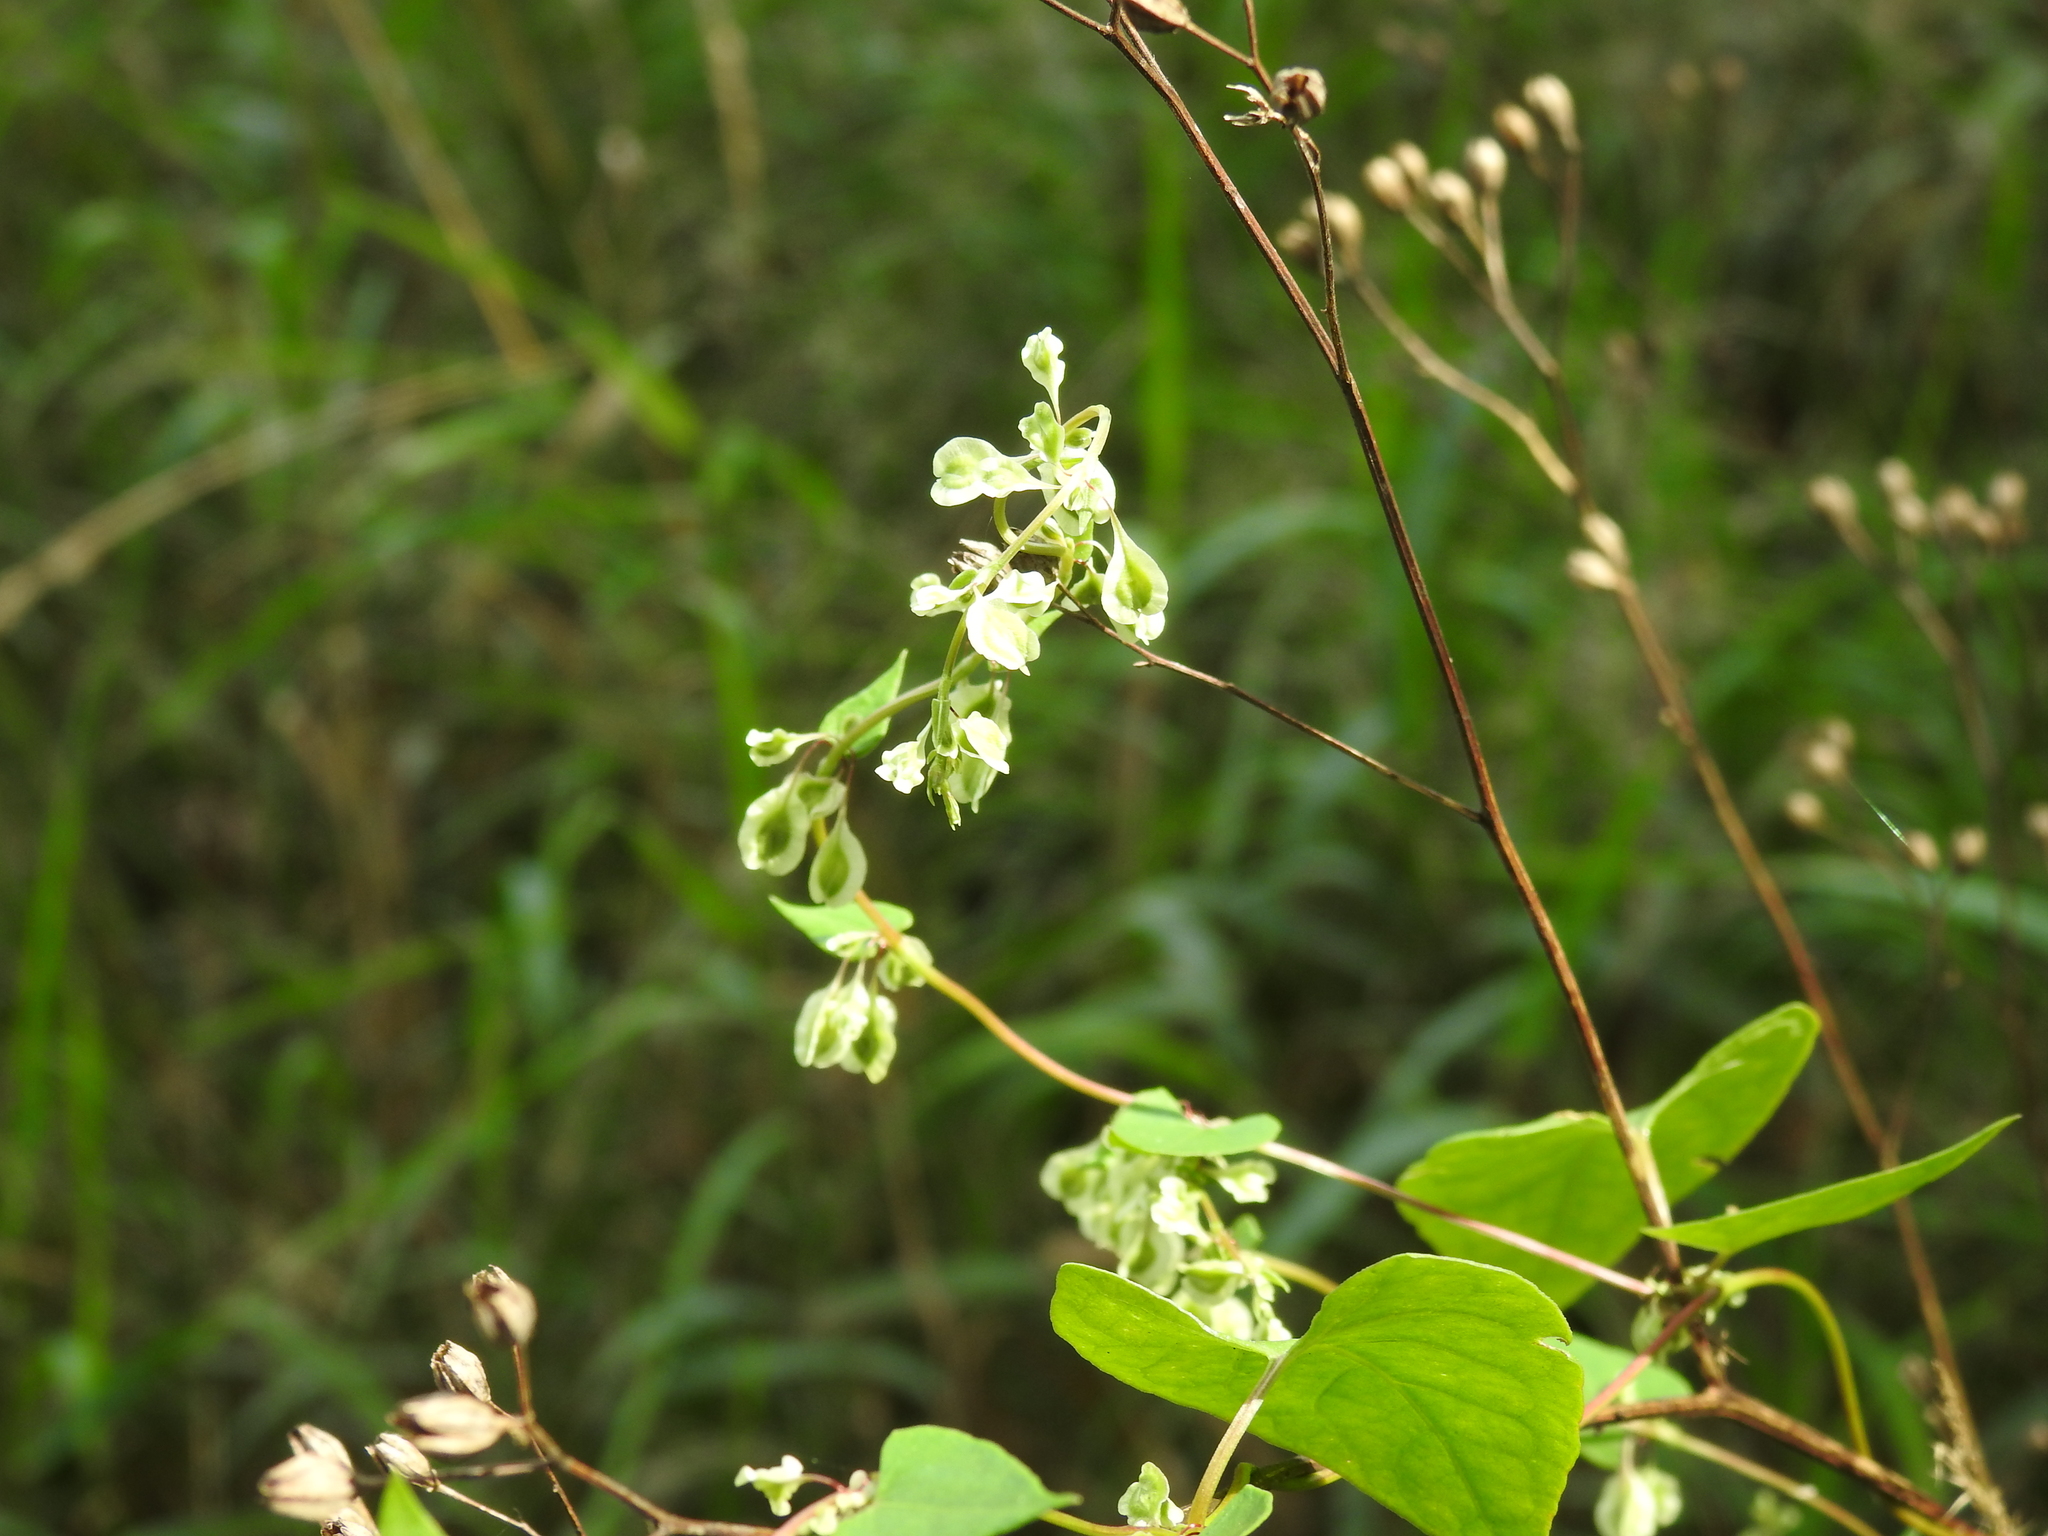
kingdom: Plantae
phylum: Tracheophyta
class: Magnoliopsida
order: Caryophyllales
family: Polygonaceae
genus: Fallopia
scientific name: Fallopia dumetorum
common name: Copse-bindweed
